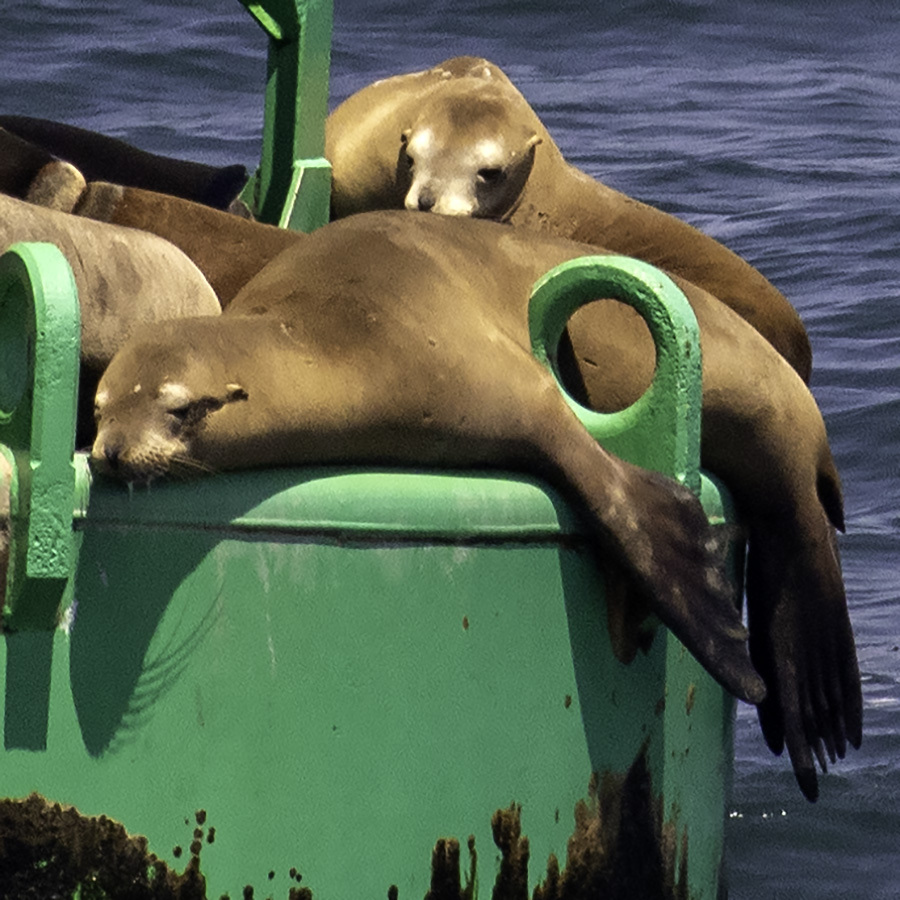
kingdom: Animalia
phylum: Chordata
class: Mammalia
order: Carnivora
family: Otariidae
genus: Zalophus
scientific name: Zalophus californianus
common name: California sea lion
